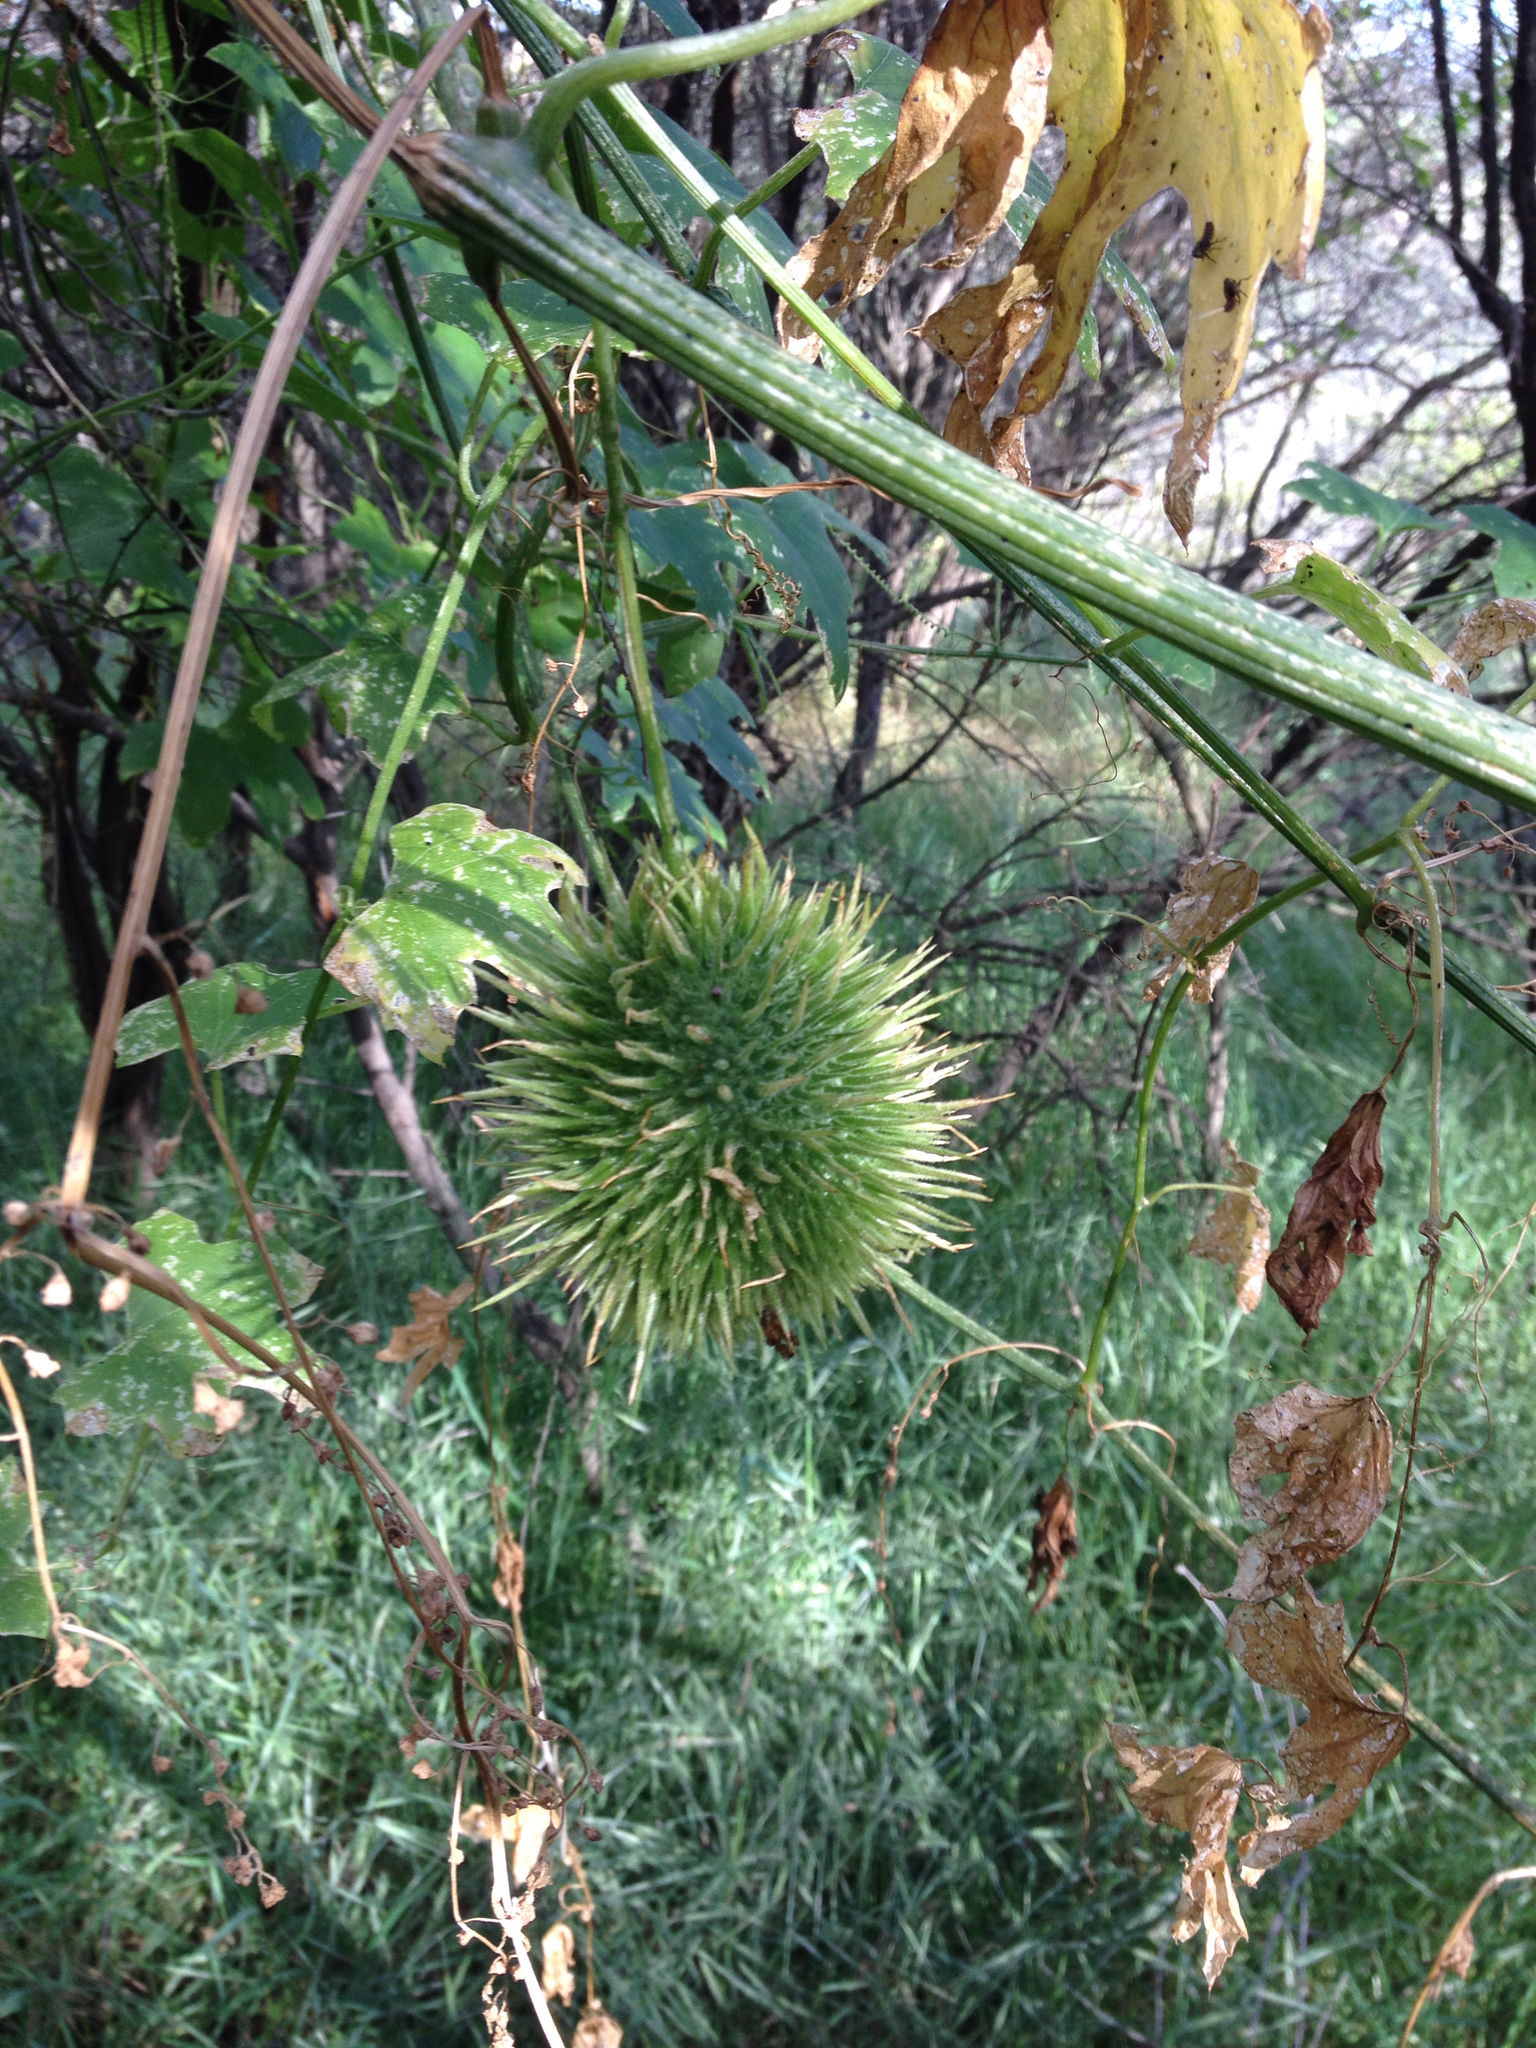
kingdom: Plantae
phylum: Tracheophyta
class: Magnoliopsida
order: Cucurbitales
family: Cucurbitaceae
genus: Marah
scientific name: Marah macrocarpa
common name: Cucamonga manroot
